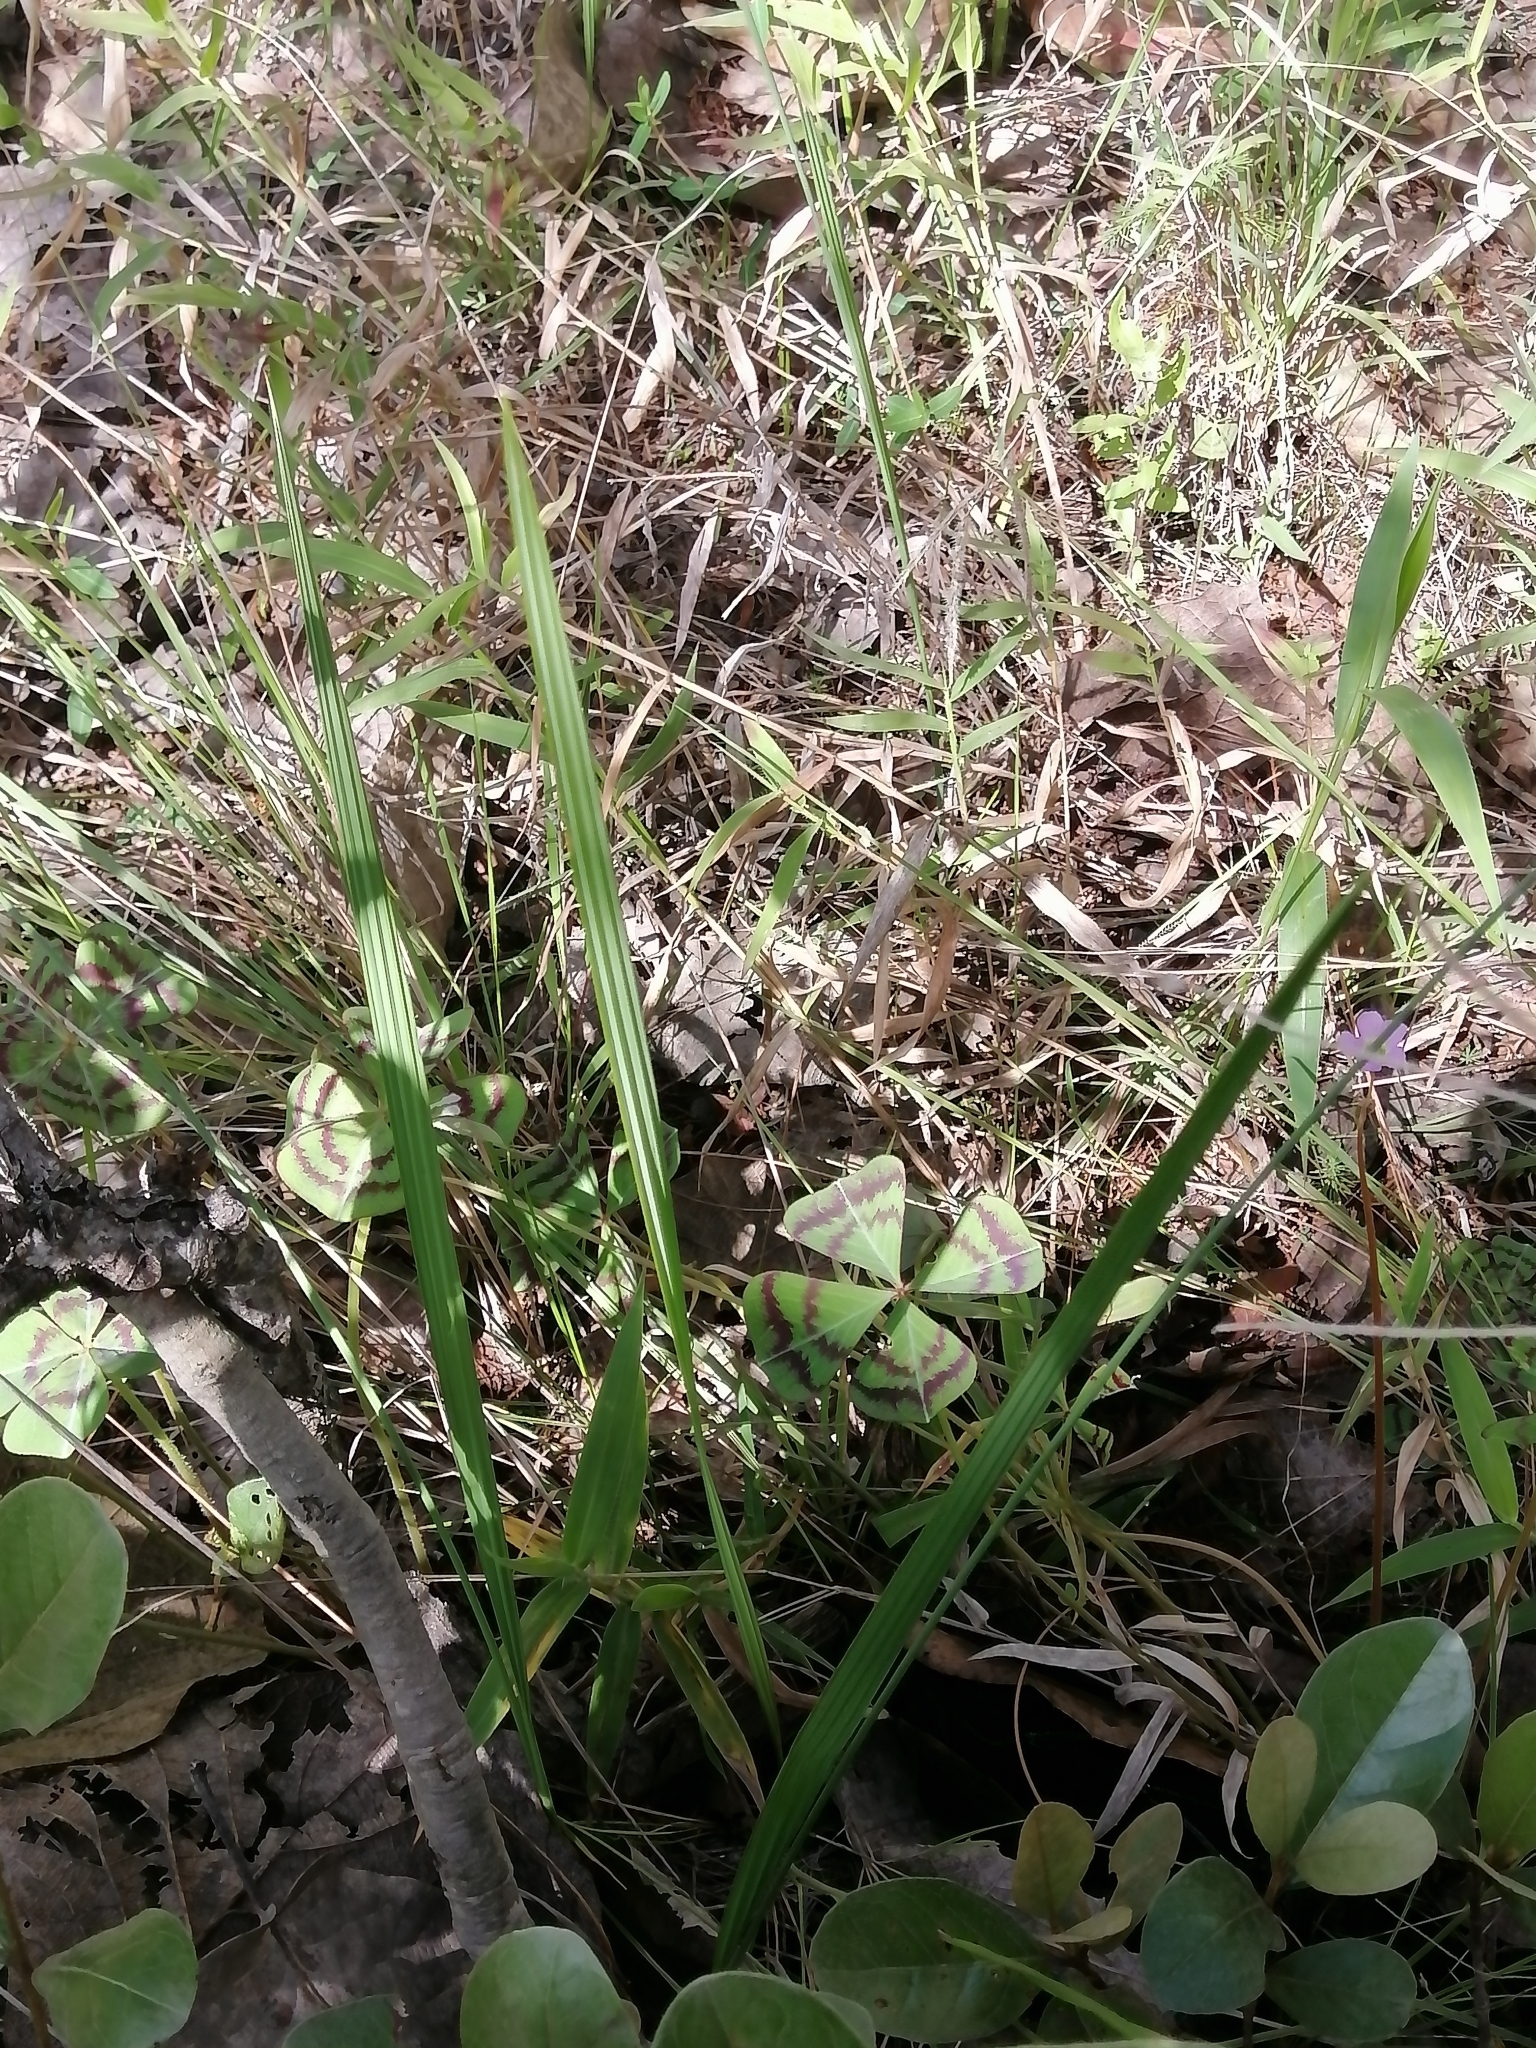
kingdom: Plantae
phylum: Tracheophyta
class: Liliopsida
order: Asparagales
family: Iridaceae
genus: Tigridia
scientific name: Tigridia longispatha
